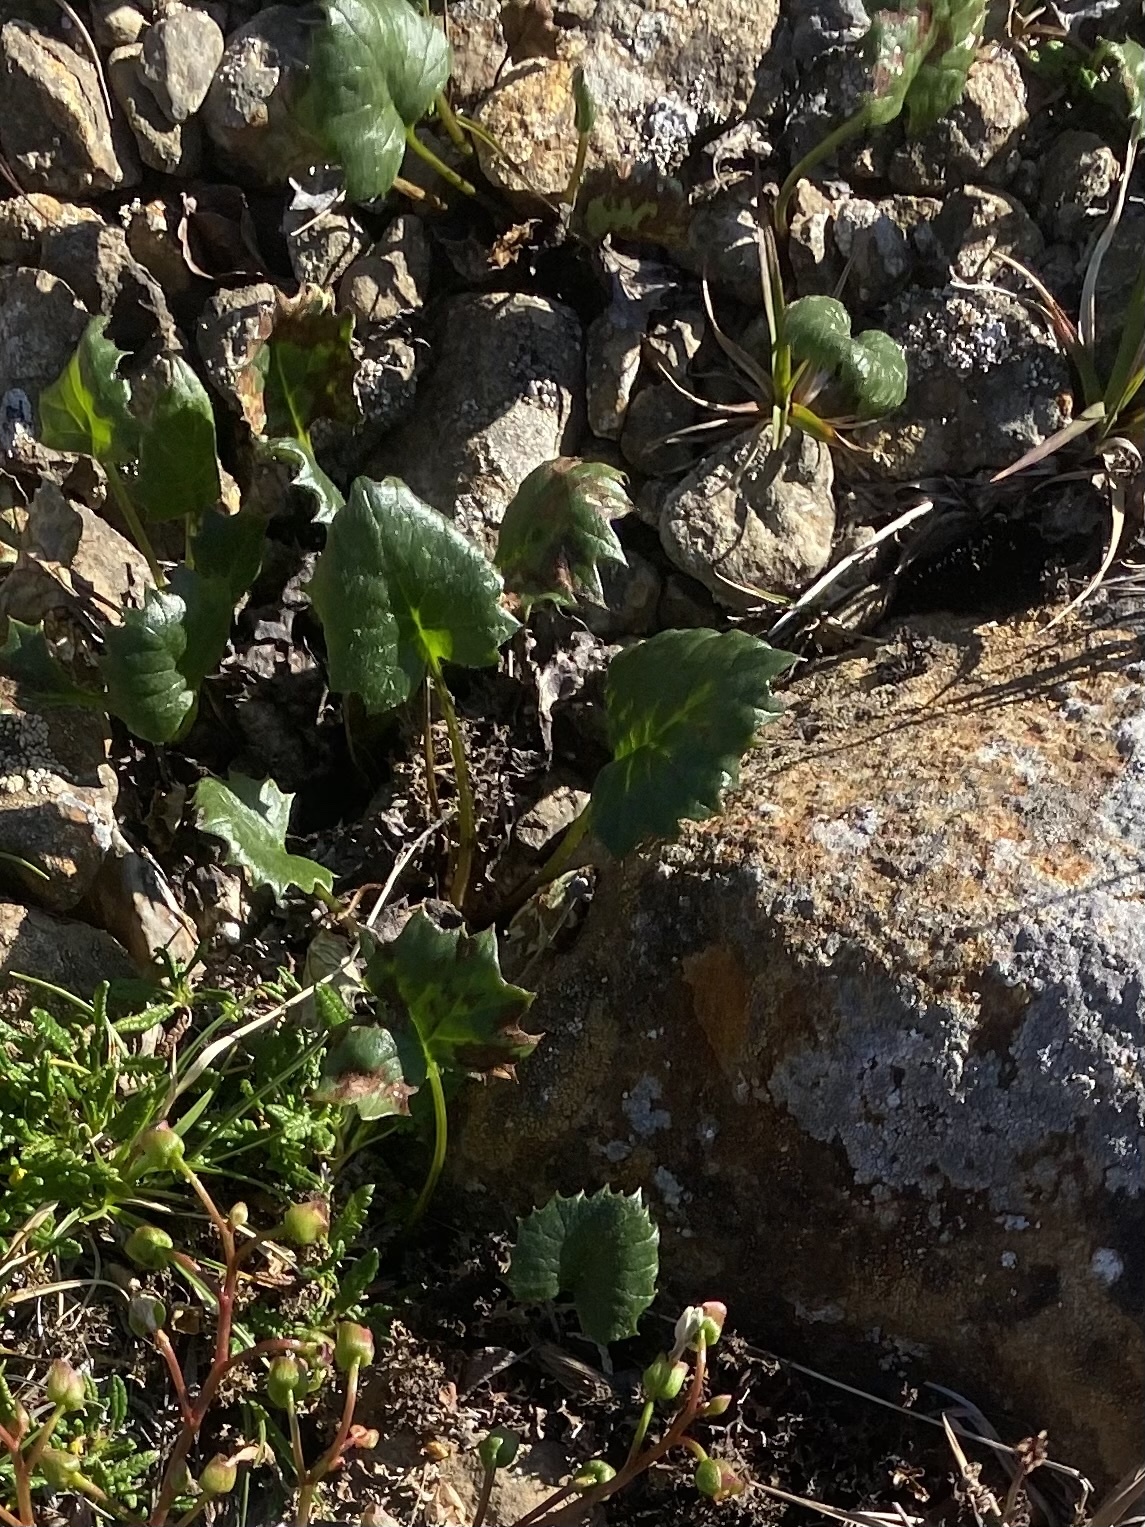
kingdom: Plantae
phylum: Tracheophyta
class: Magnoliopsida
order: Asterales
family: Asteraceae
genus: Endocellion
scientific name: Endocellion glaciale
